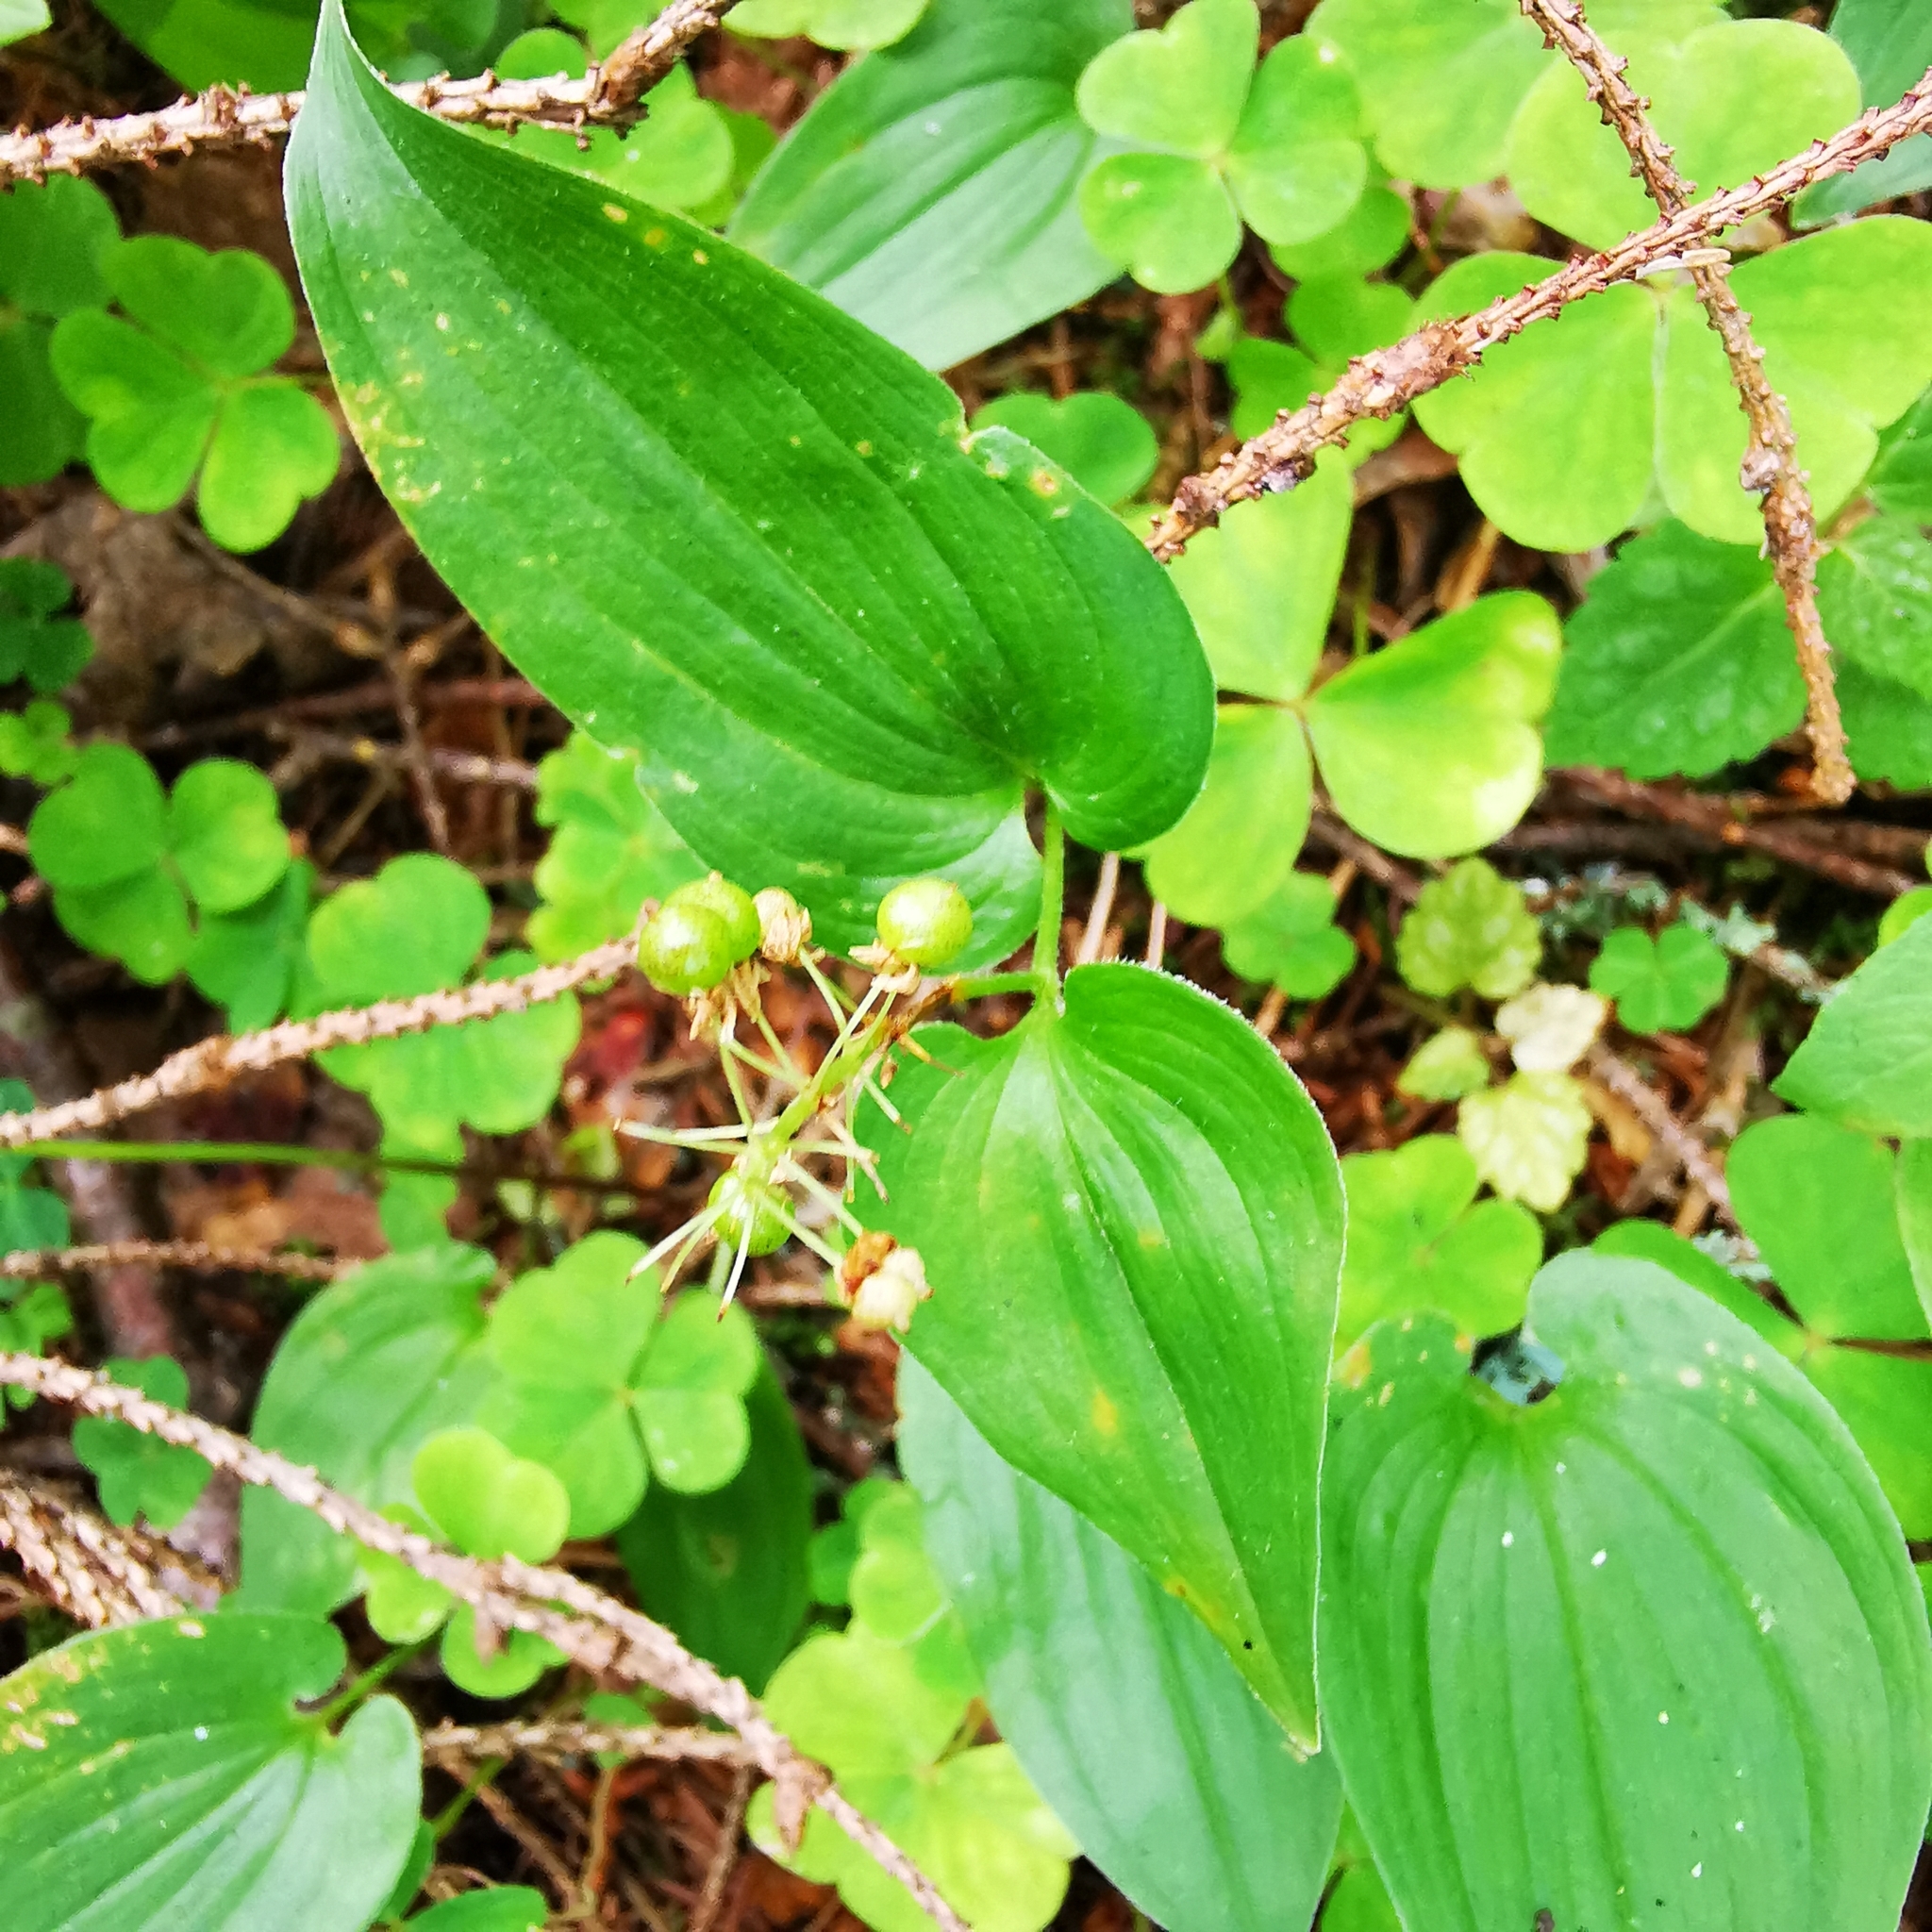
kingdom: Plantae
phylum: Tracheophyta
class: Liliopsida
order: Asparagales
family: Asparagaceae
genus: Maianthemum
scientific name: Maianthemum bifolium
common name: May lily
